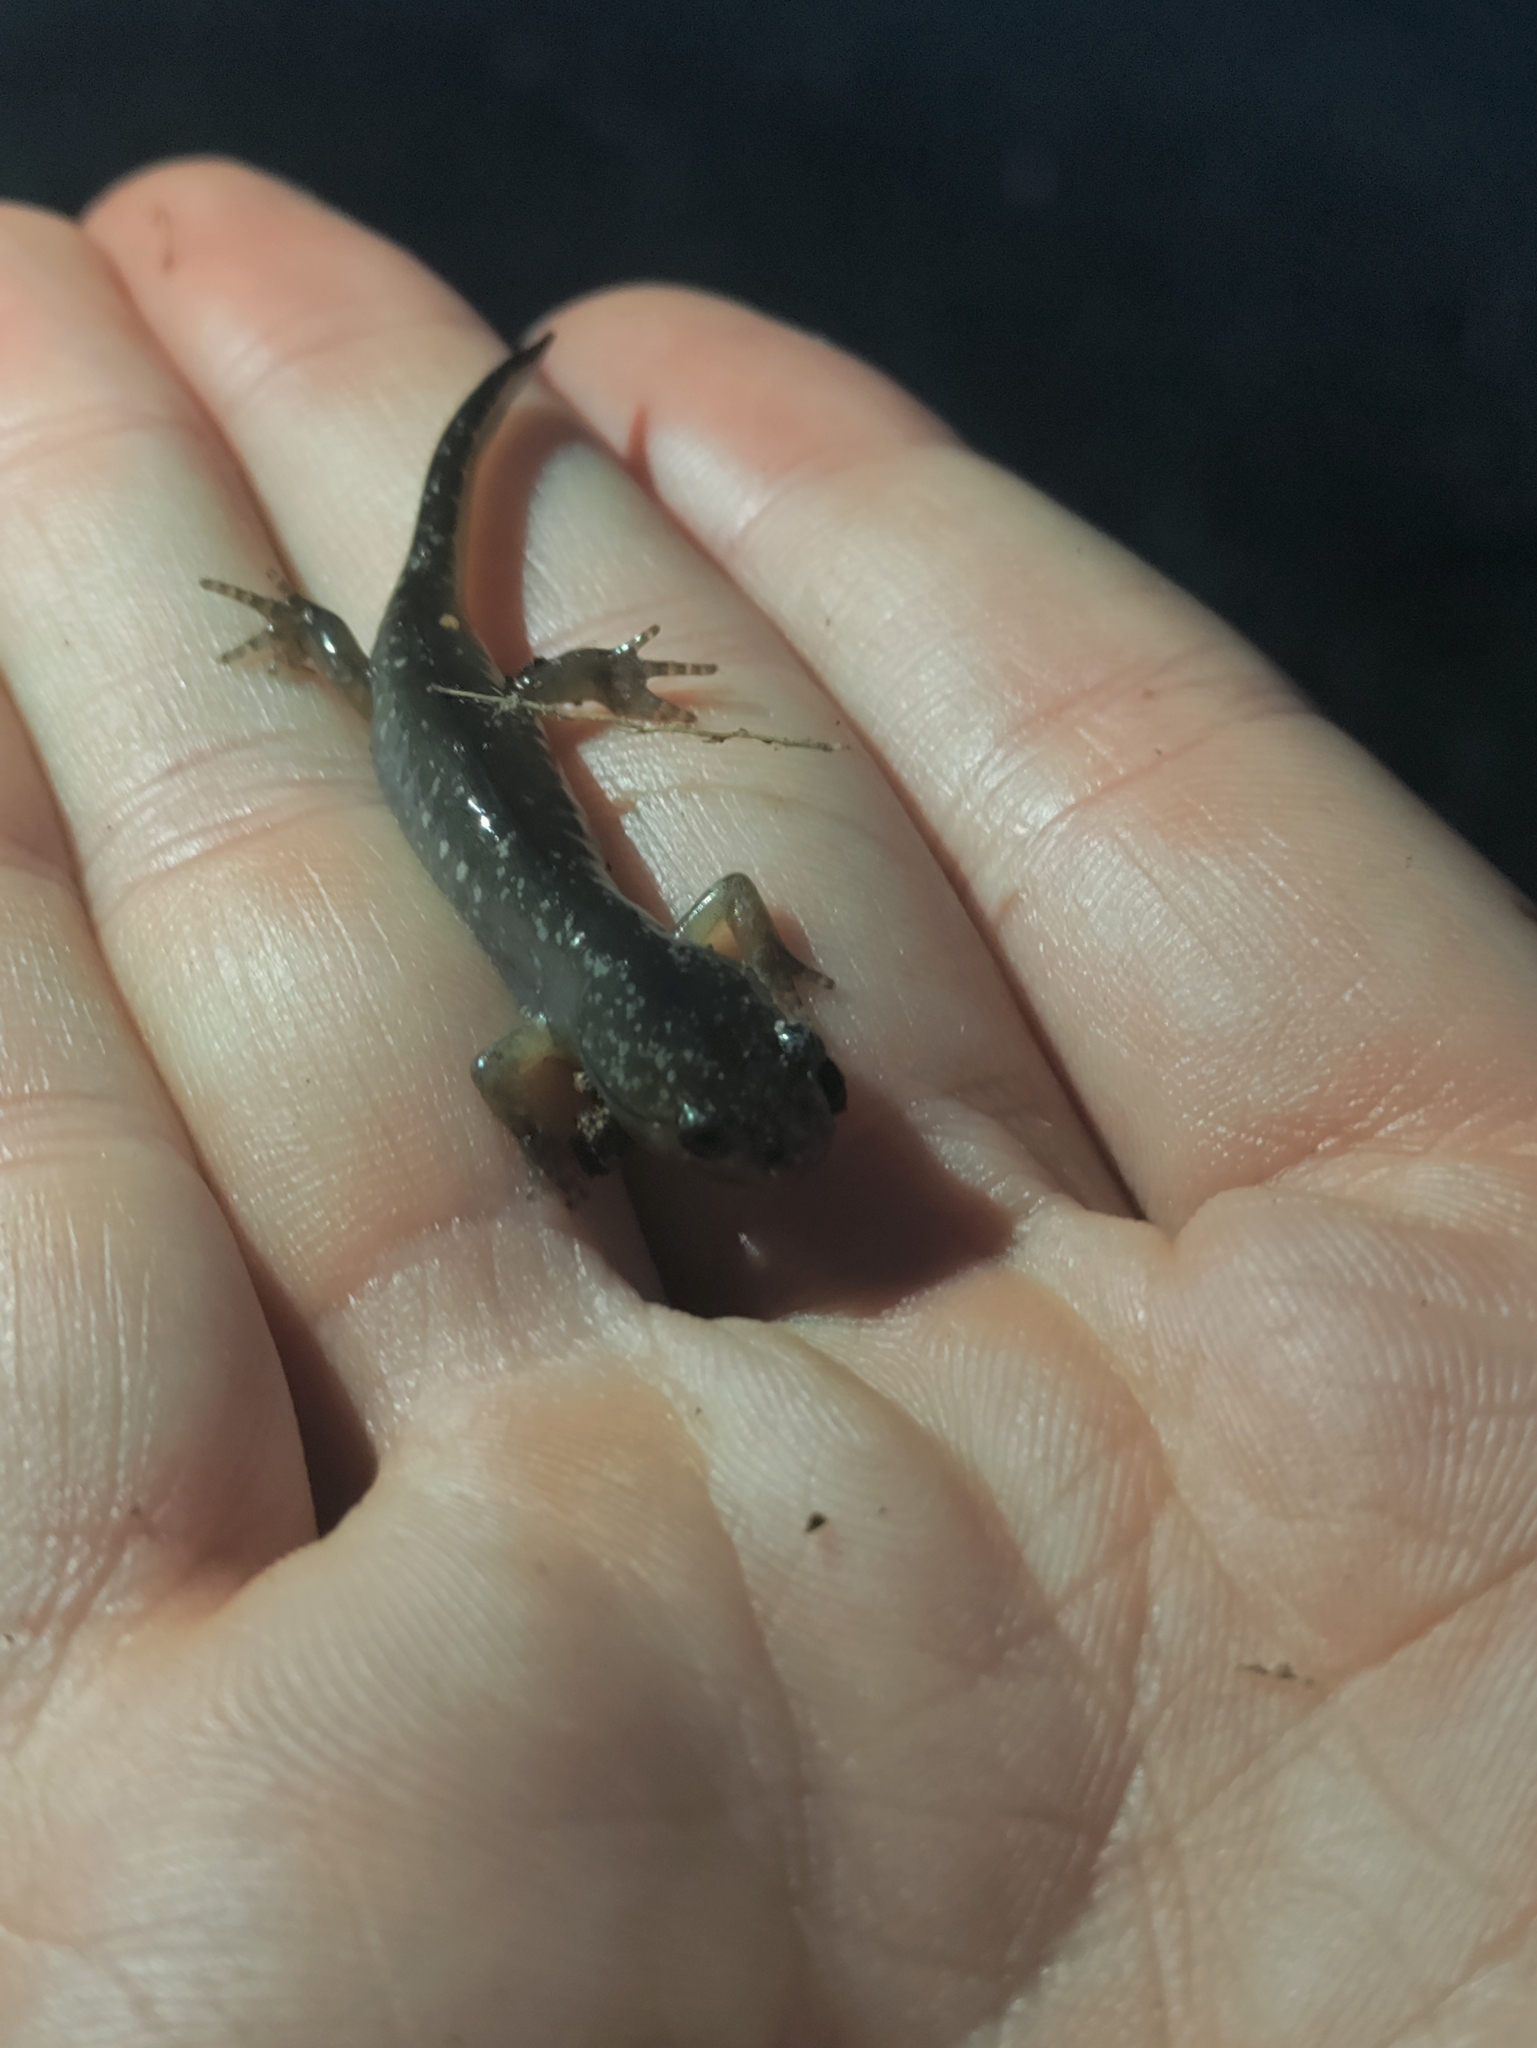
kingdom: Animalia
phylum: Chordata
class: Amphibia
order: Caudata
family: Ambystomatidae
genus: Ambystoma
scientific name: Ambystoma opacum
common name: Marbled salamander
